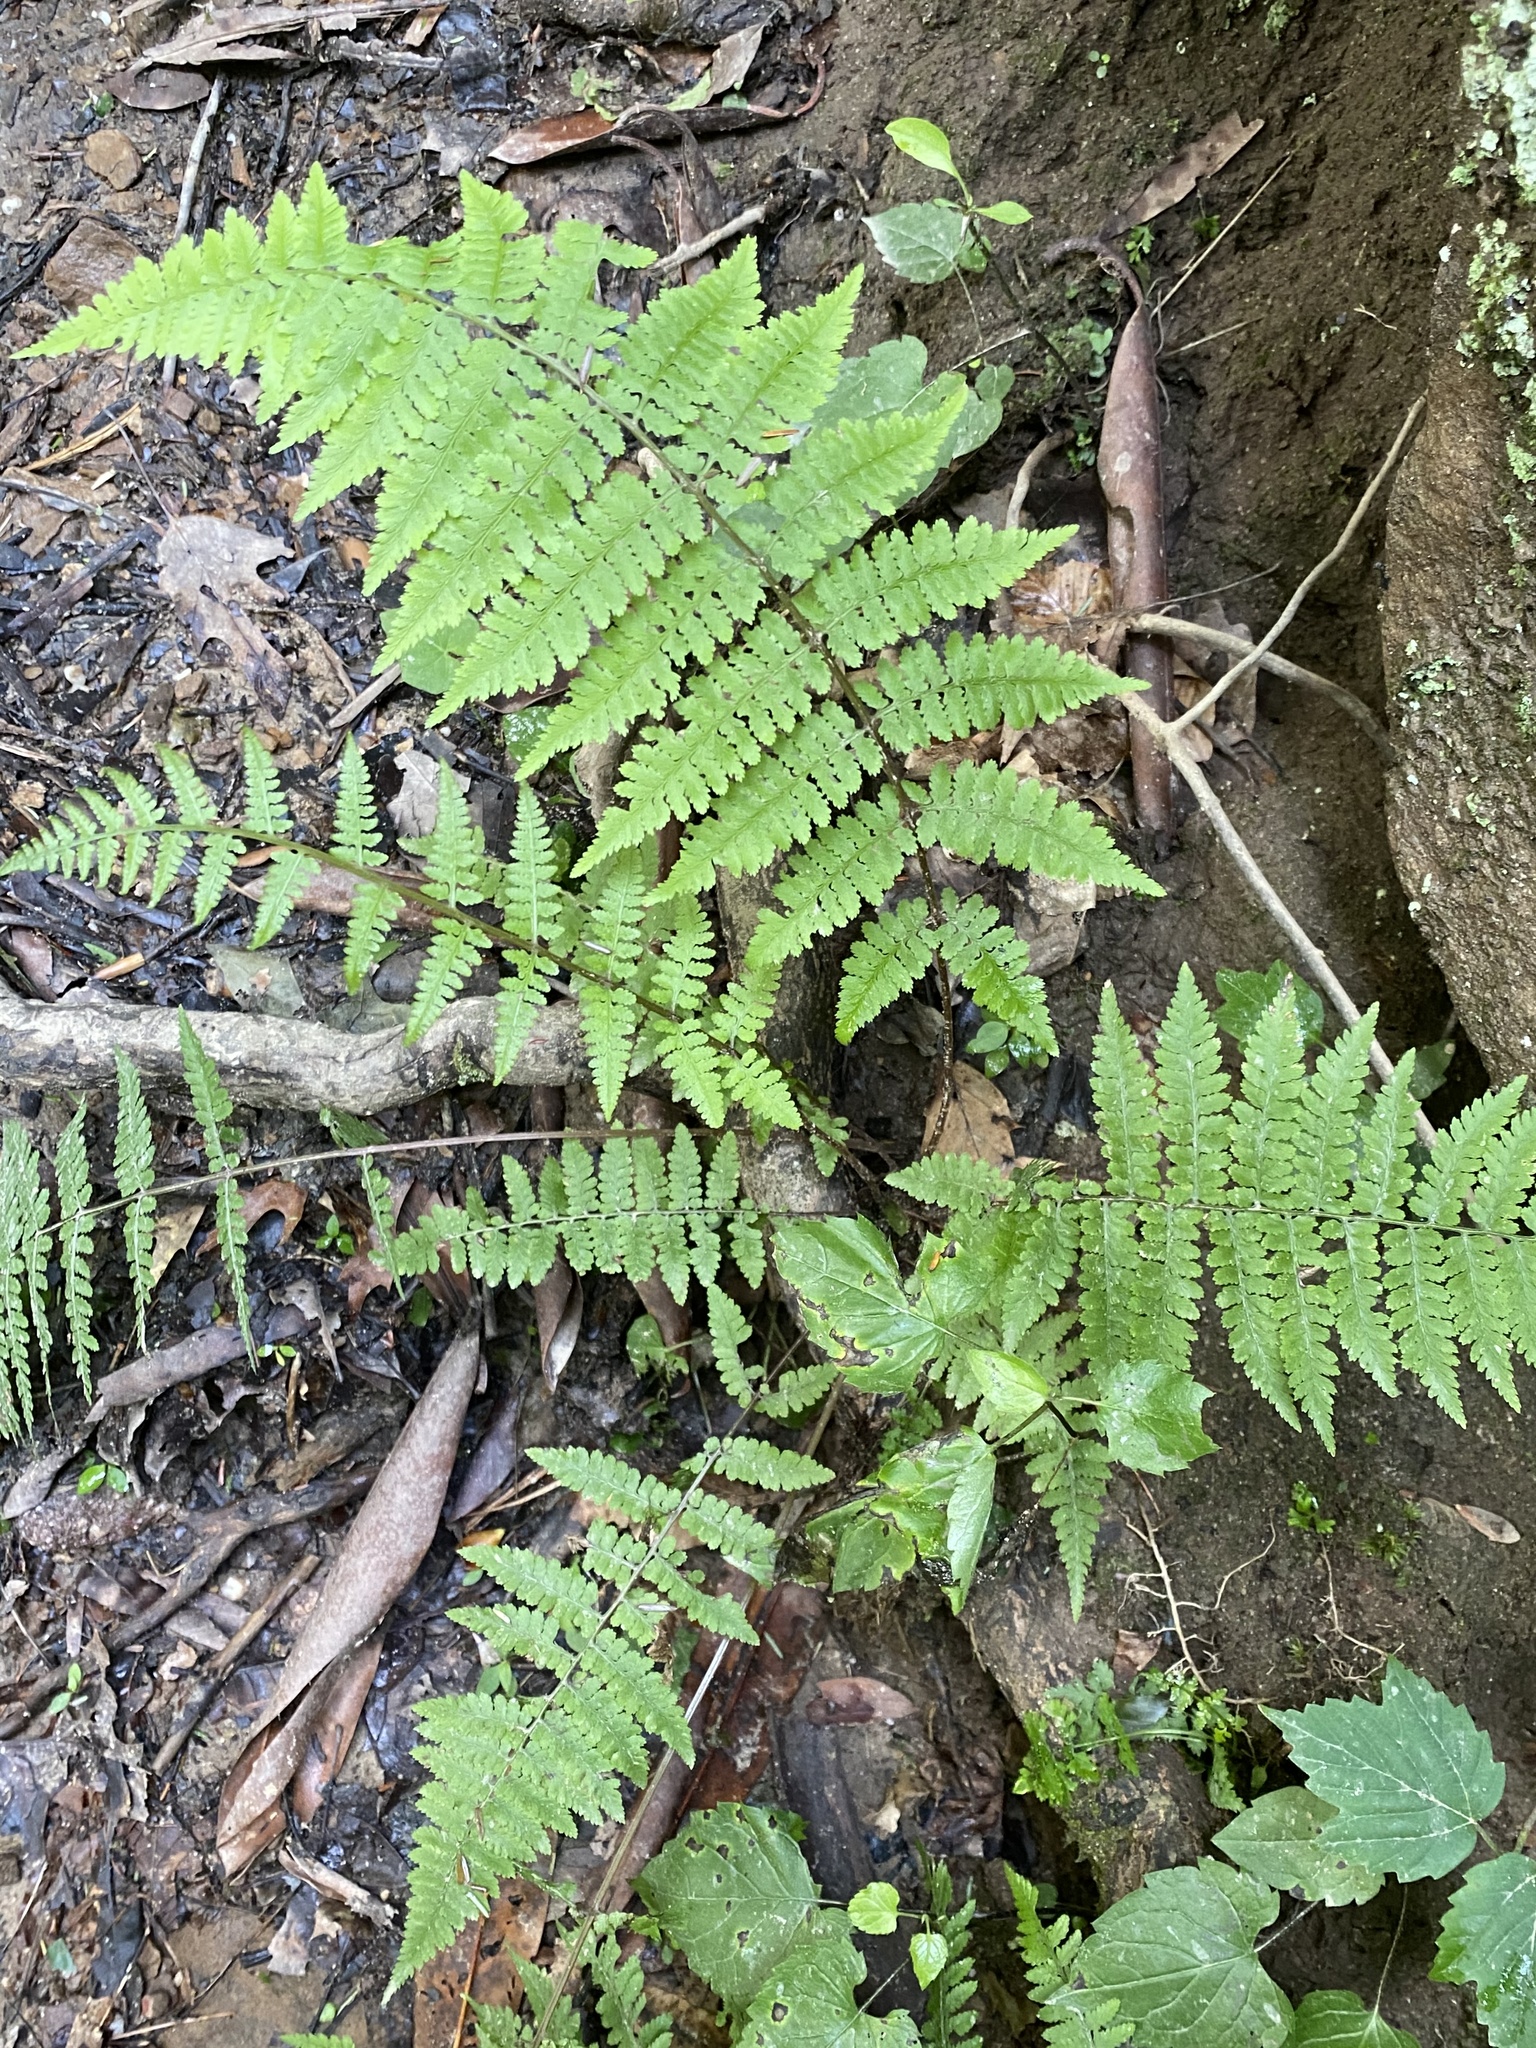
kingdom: Plantae
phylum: Tracheophyta
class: Polypodiopsida
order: Polypodiales
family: Athyriaceae
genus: Athyrium
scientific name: Athyrium asplenioides
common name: Southern lady fern
